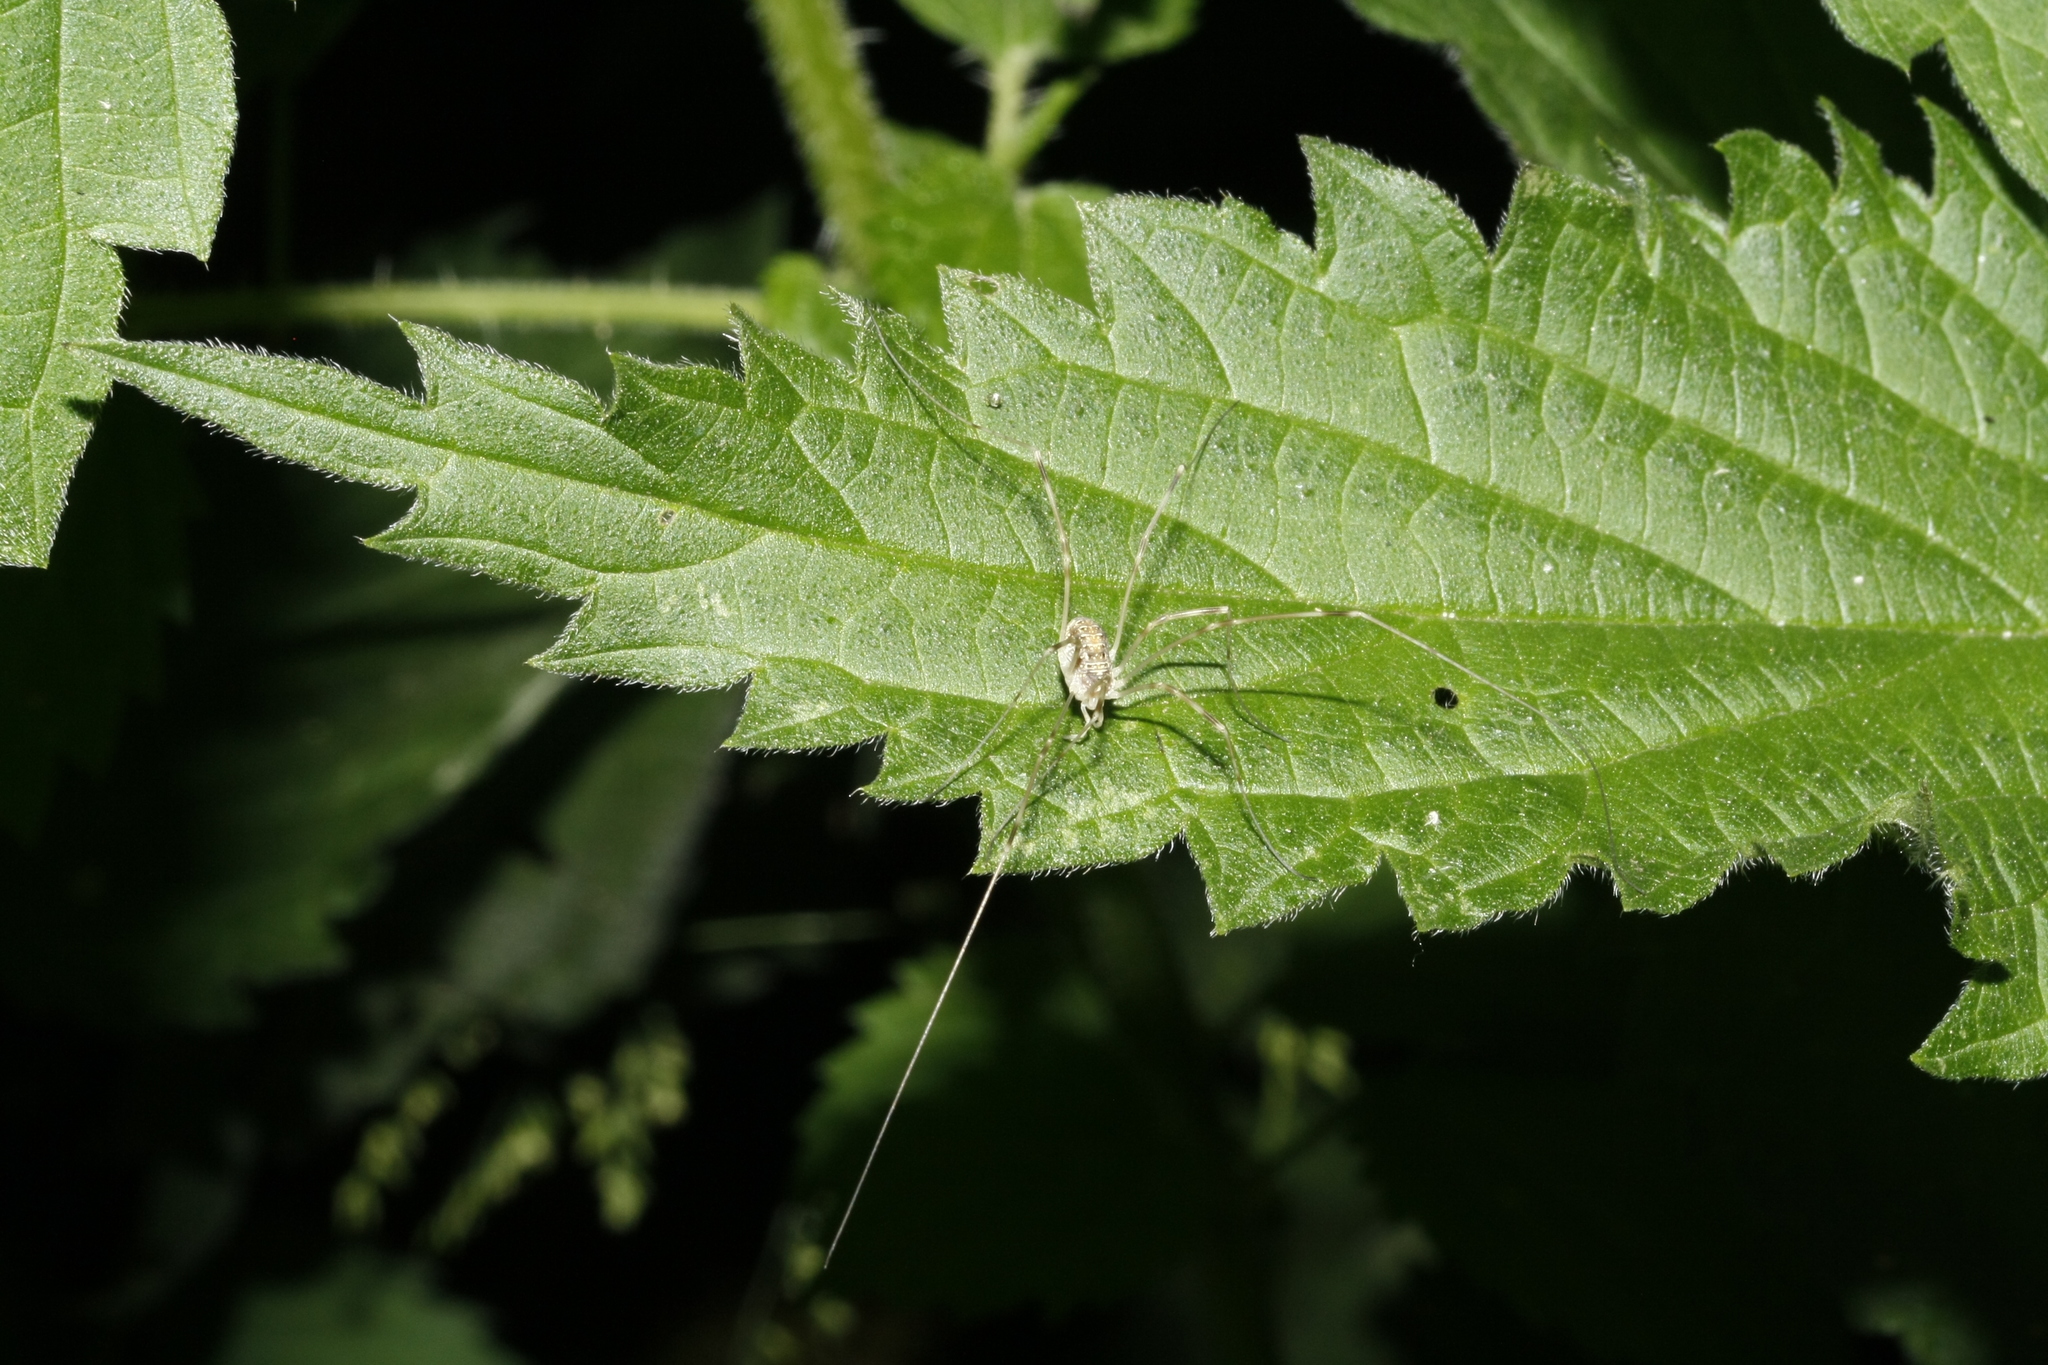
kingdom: Animalia
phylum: Arthropoda
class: Arachnida
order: Opiliones
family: Phalangiidae
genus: Opilio
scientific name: Opilio canestrinii
